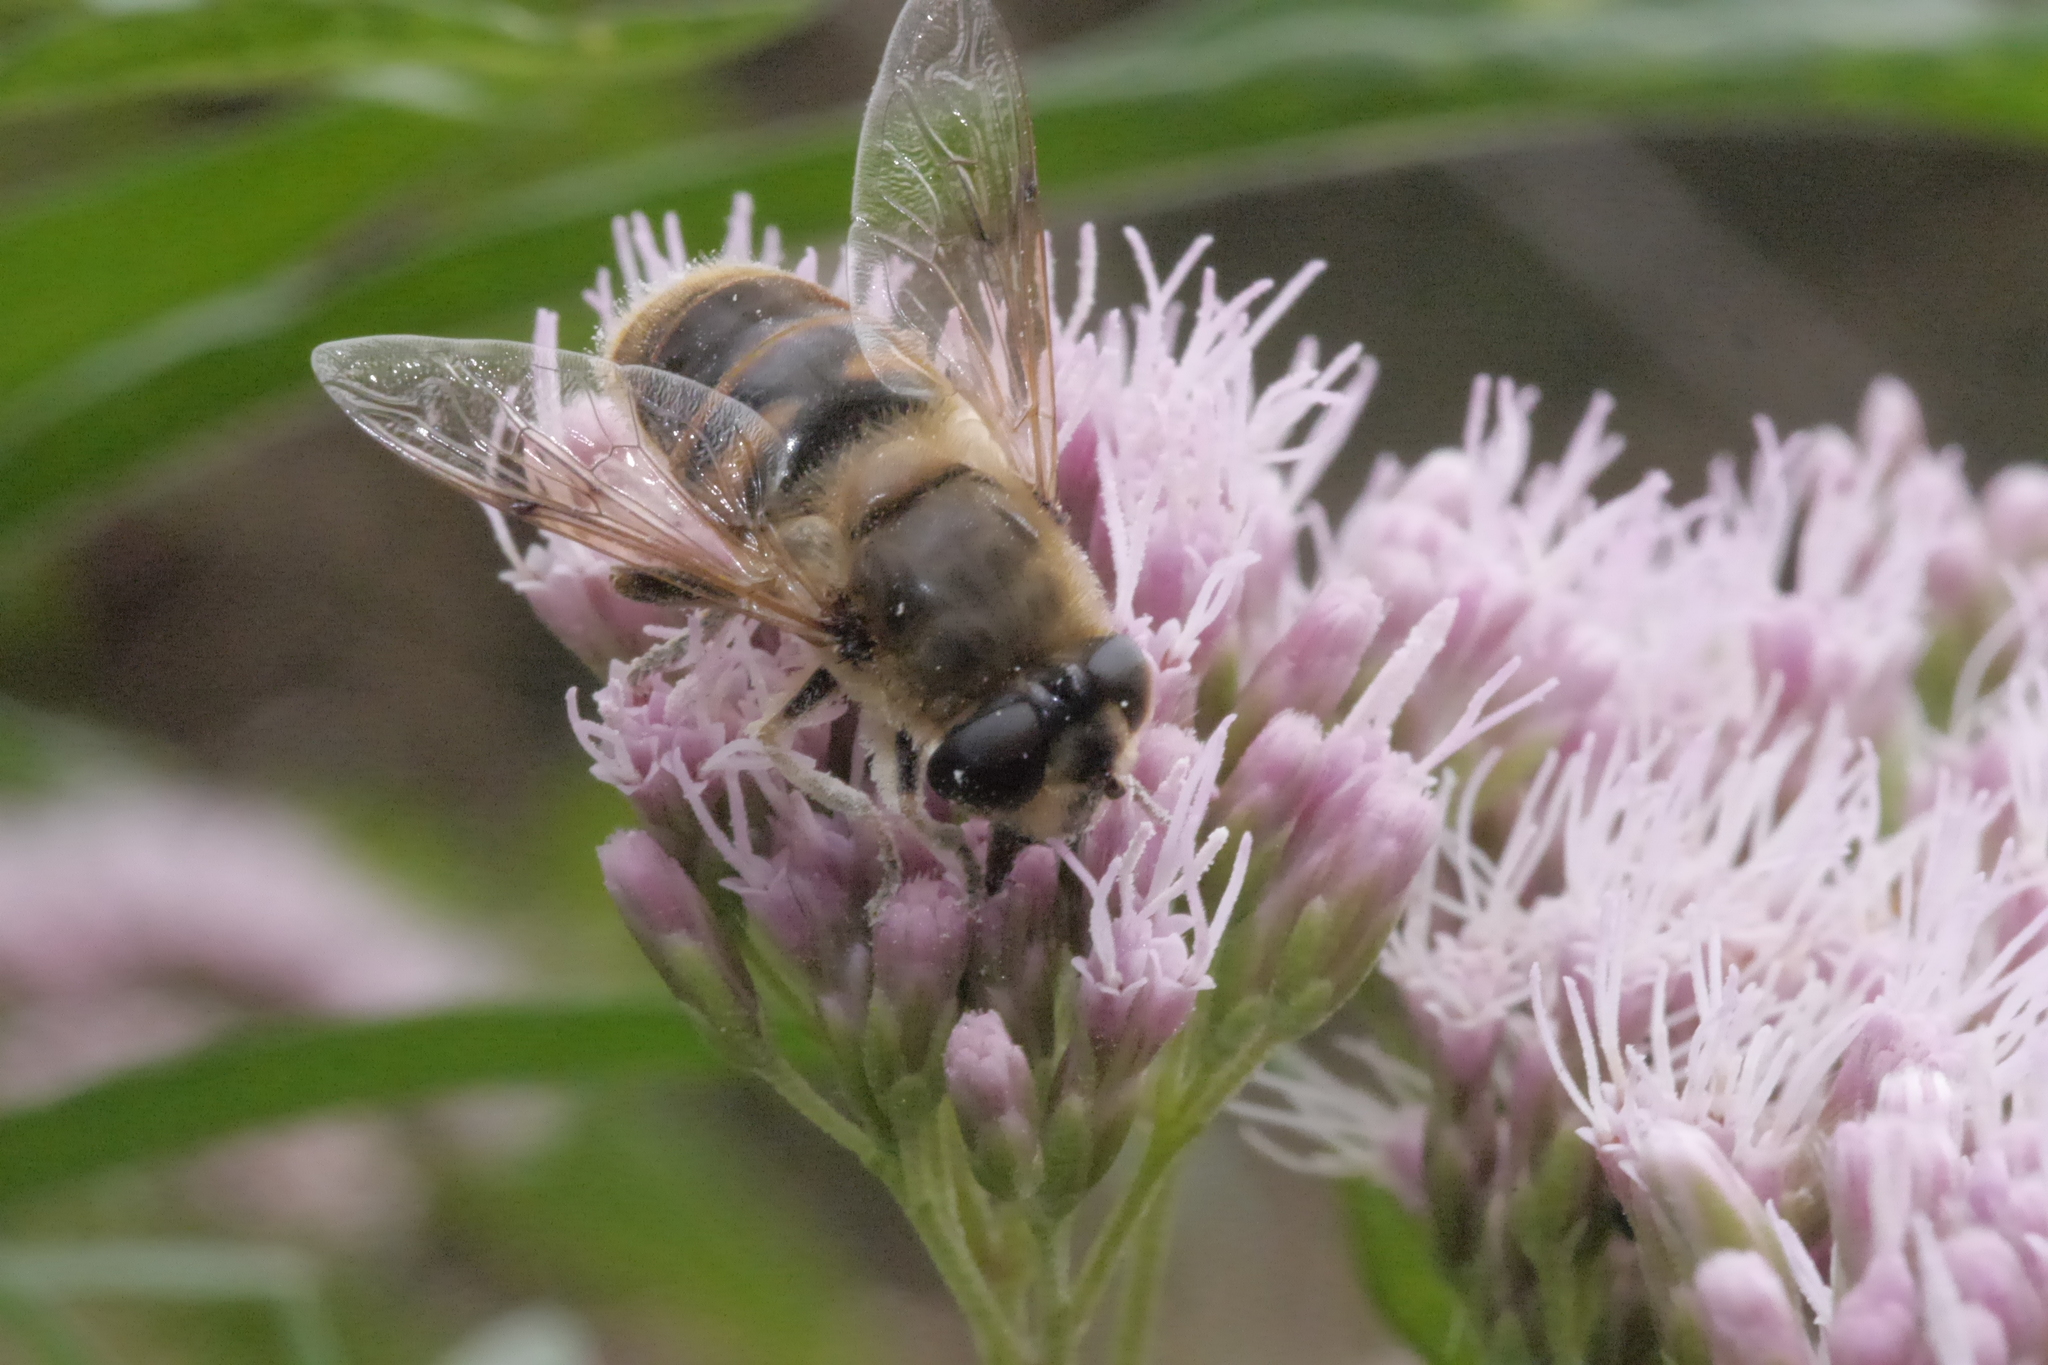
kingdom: Animalia
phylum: Arthropoda
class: Insecta
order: Diptera
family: Syrphidae
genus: Eristalis
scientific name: Eristalis tenax
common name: Drone fly
